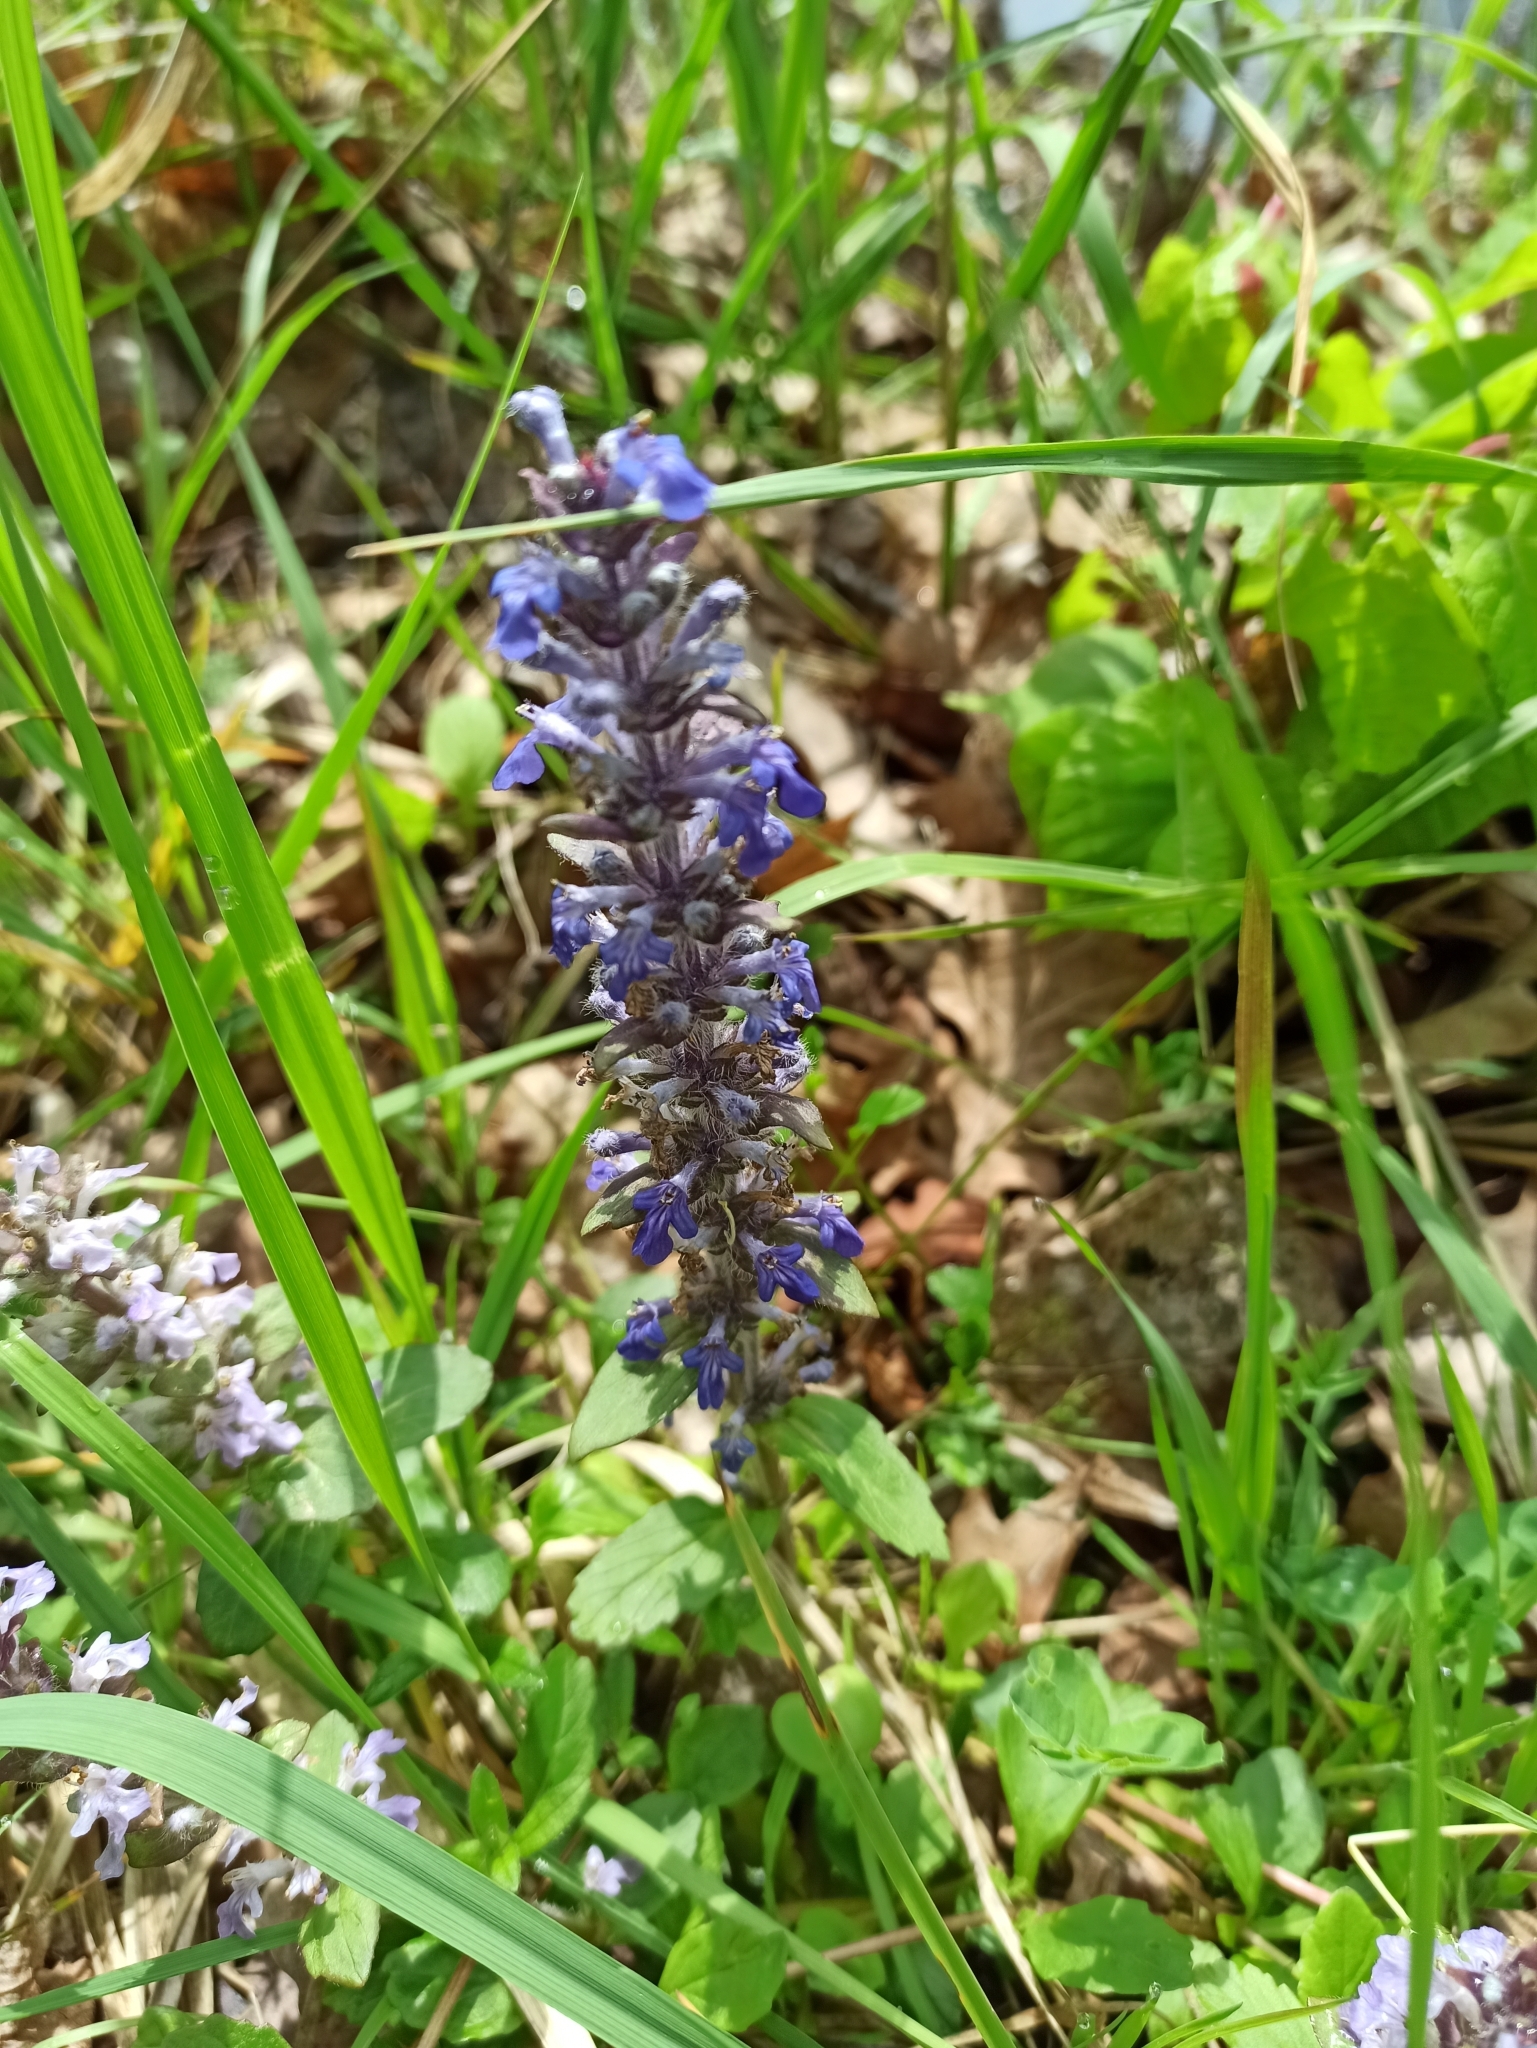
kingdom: Plantae
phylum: Tracheophyta
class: Magnoliopsida
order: Lamiales
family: Lamiaceae
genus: Ajuga
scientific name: Ajuga reptans
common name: Bugle
